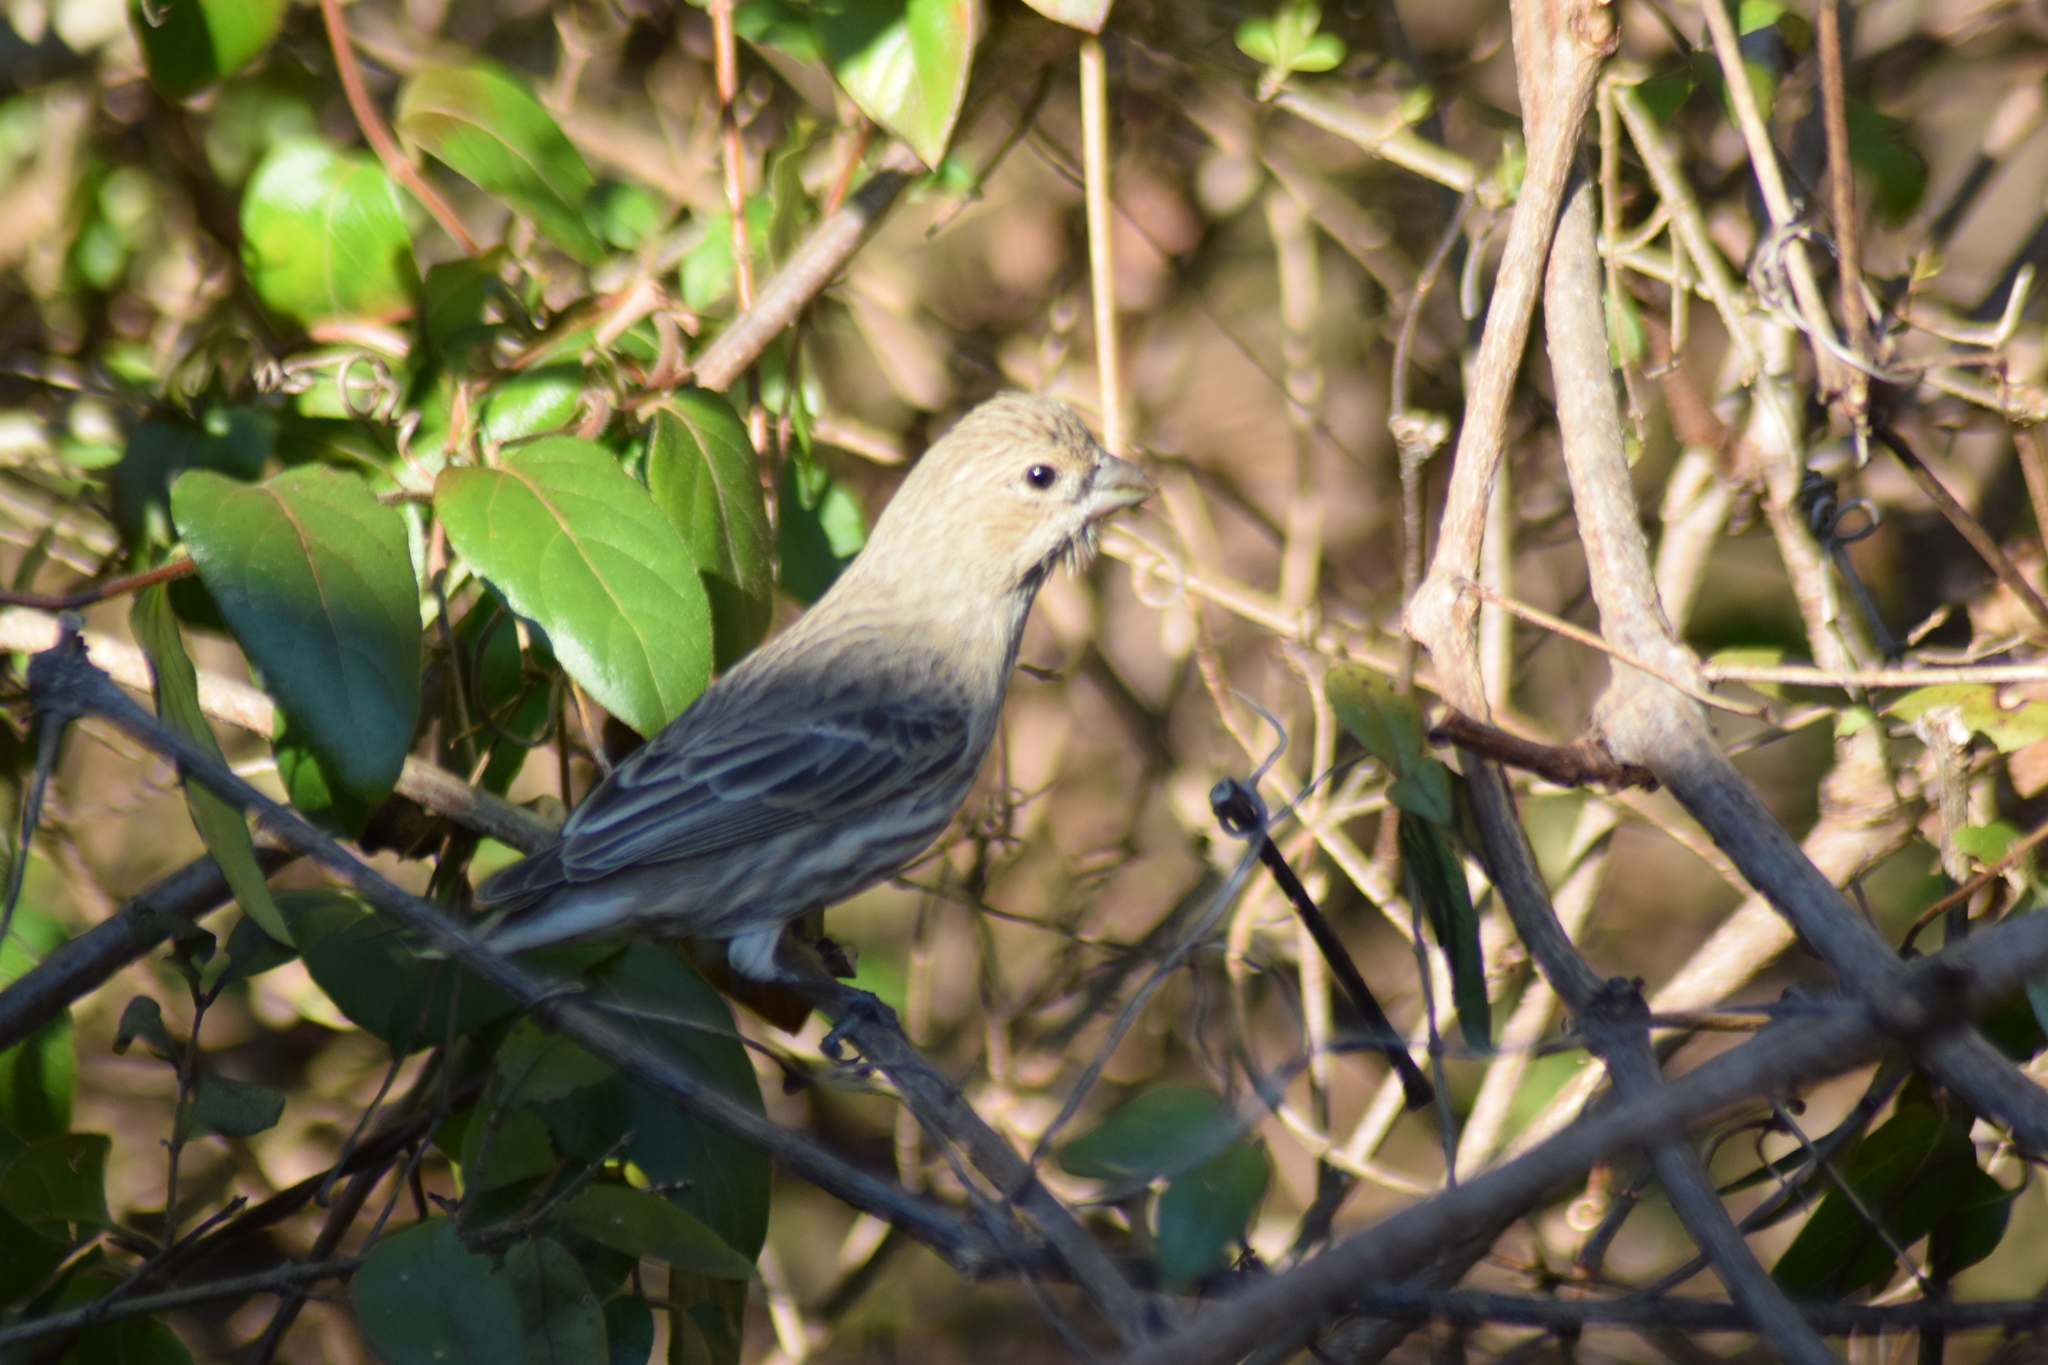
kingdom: Animalia
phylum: Chordata
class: Aves
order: Passeriformes
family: Fringillidae
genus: Haemorhous
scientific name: Haemorhous mexicanus
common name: House finch
